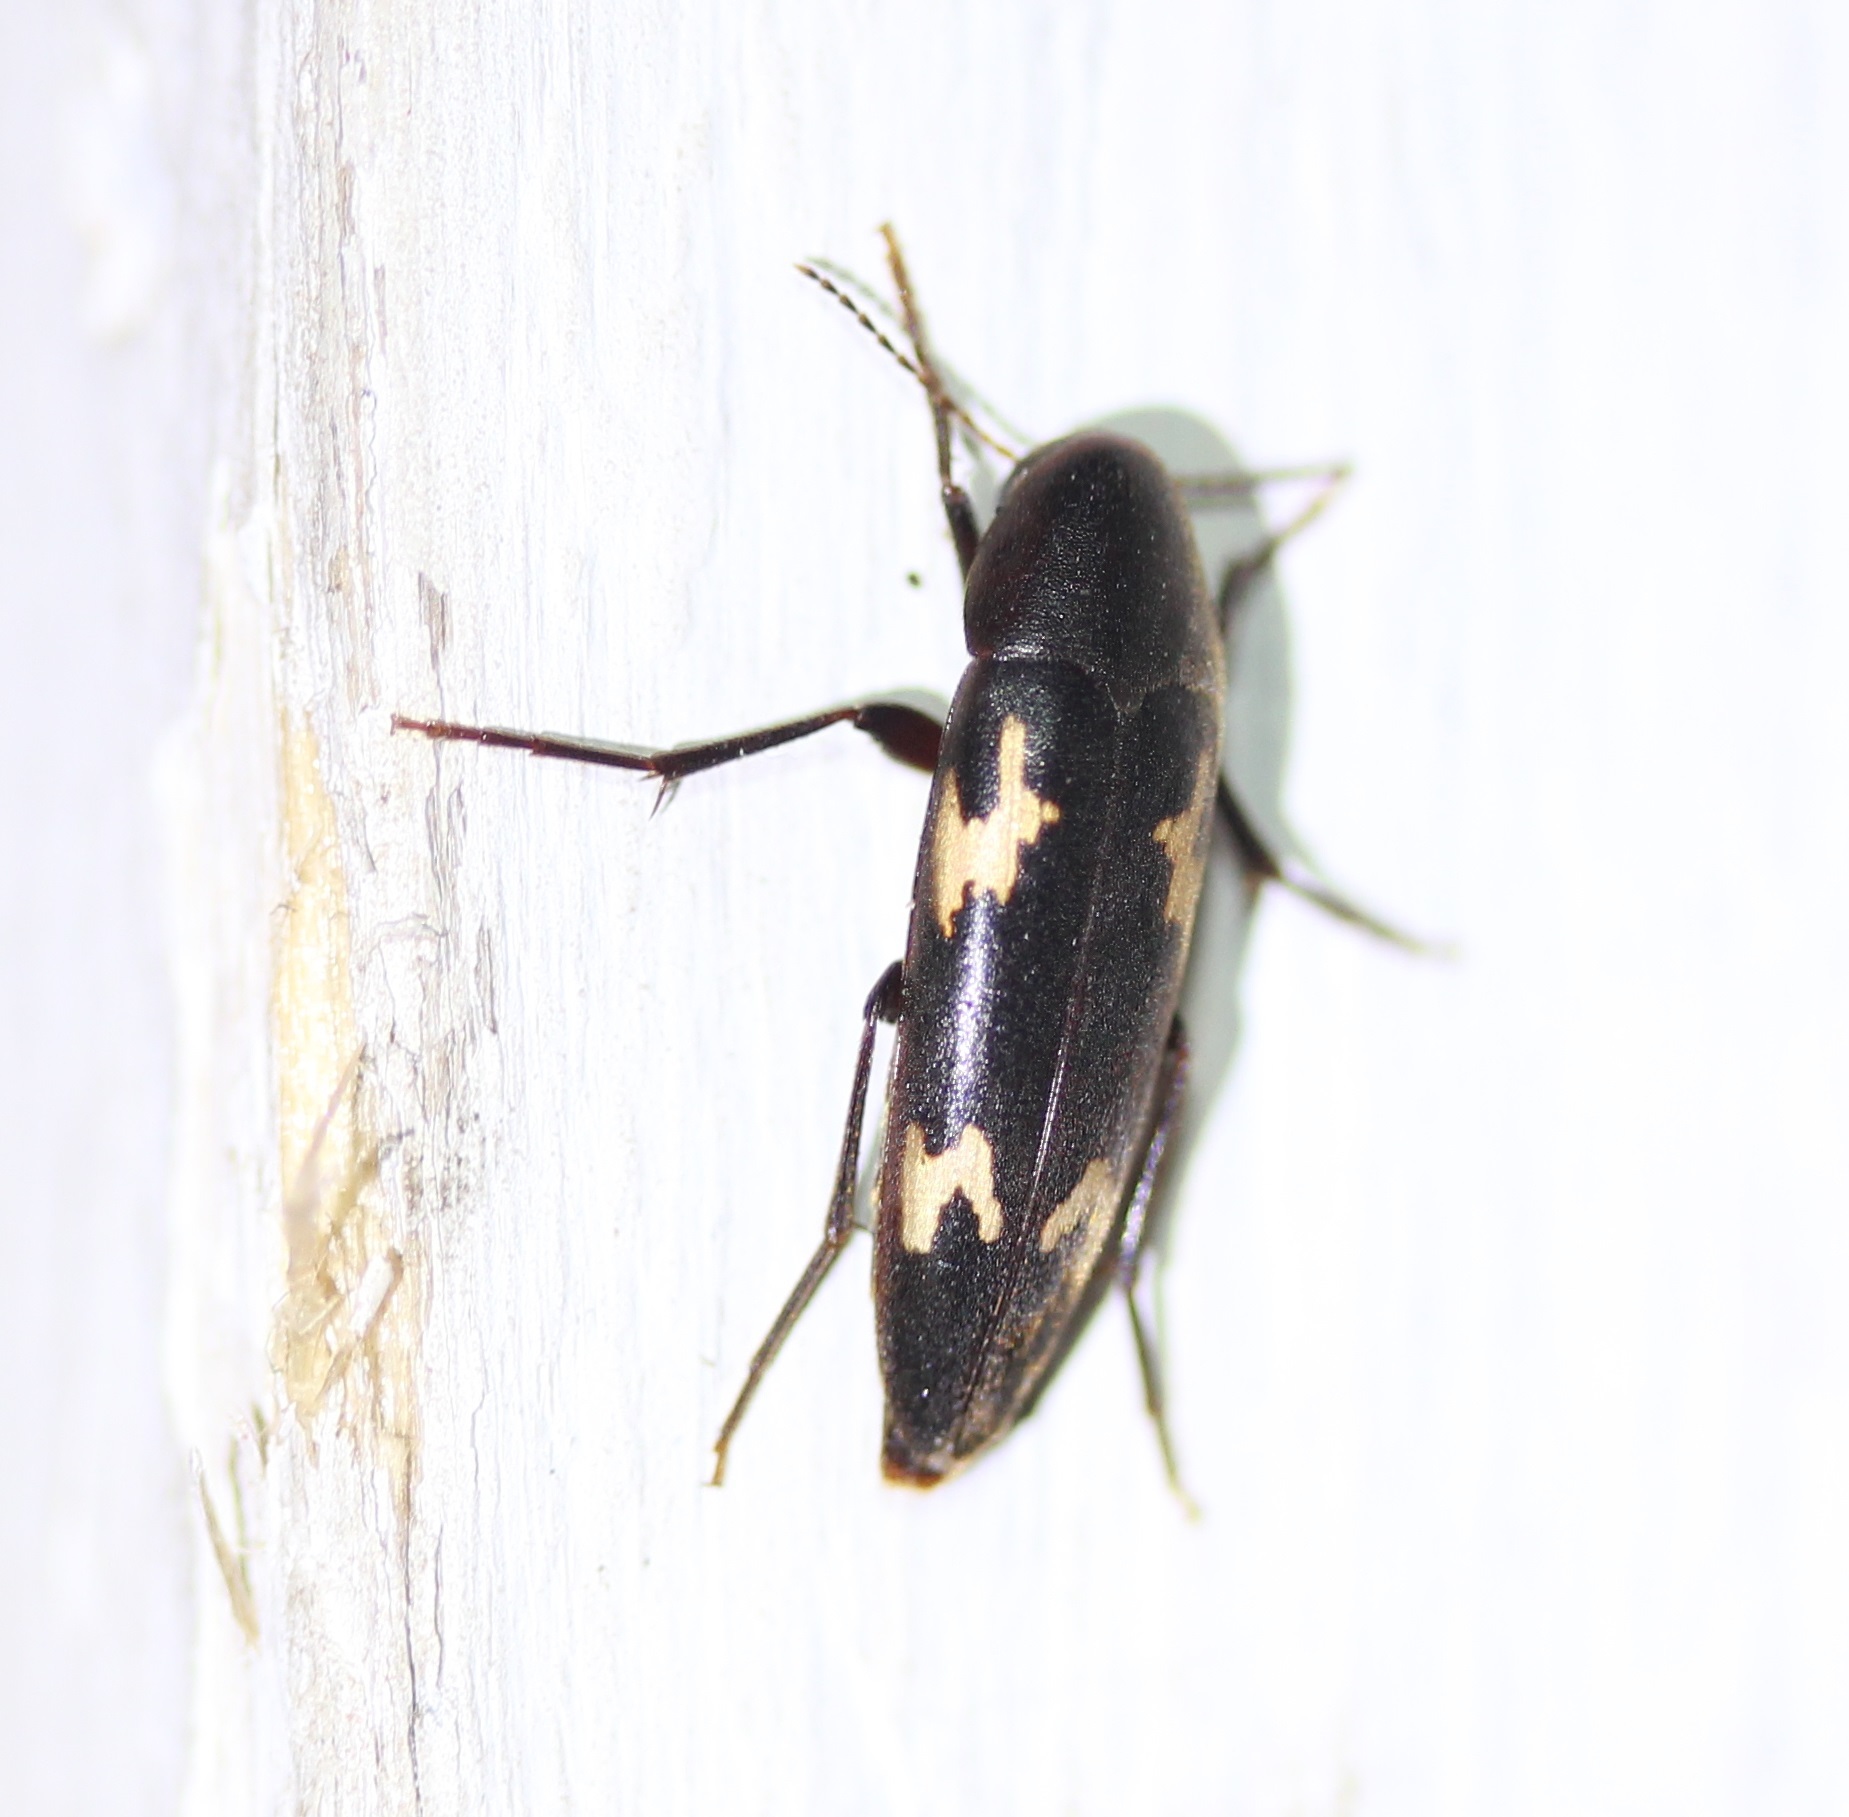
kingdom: Animalia
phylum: Arthropoda
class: Insecta
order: Coleoptera
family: Melandryidae
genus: Dircaea
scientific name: Dircaea liturata
